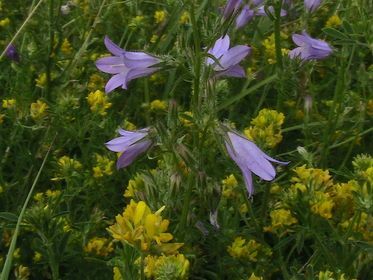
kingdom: Plantae
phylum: Tracheophyta
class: Magnoliopsida
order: Asterales
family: Campanulaceae
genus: Campanula
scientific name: Campanula sibirica
